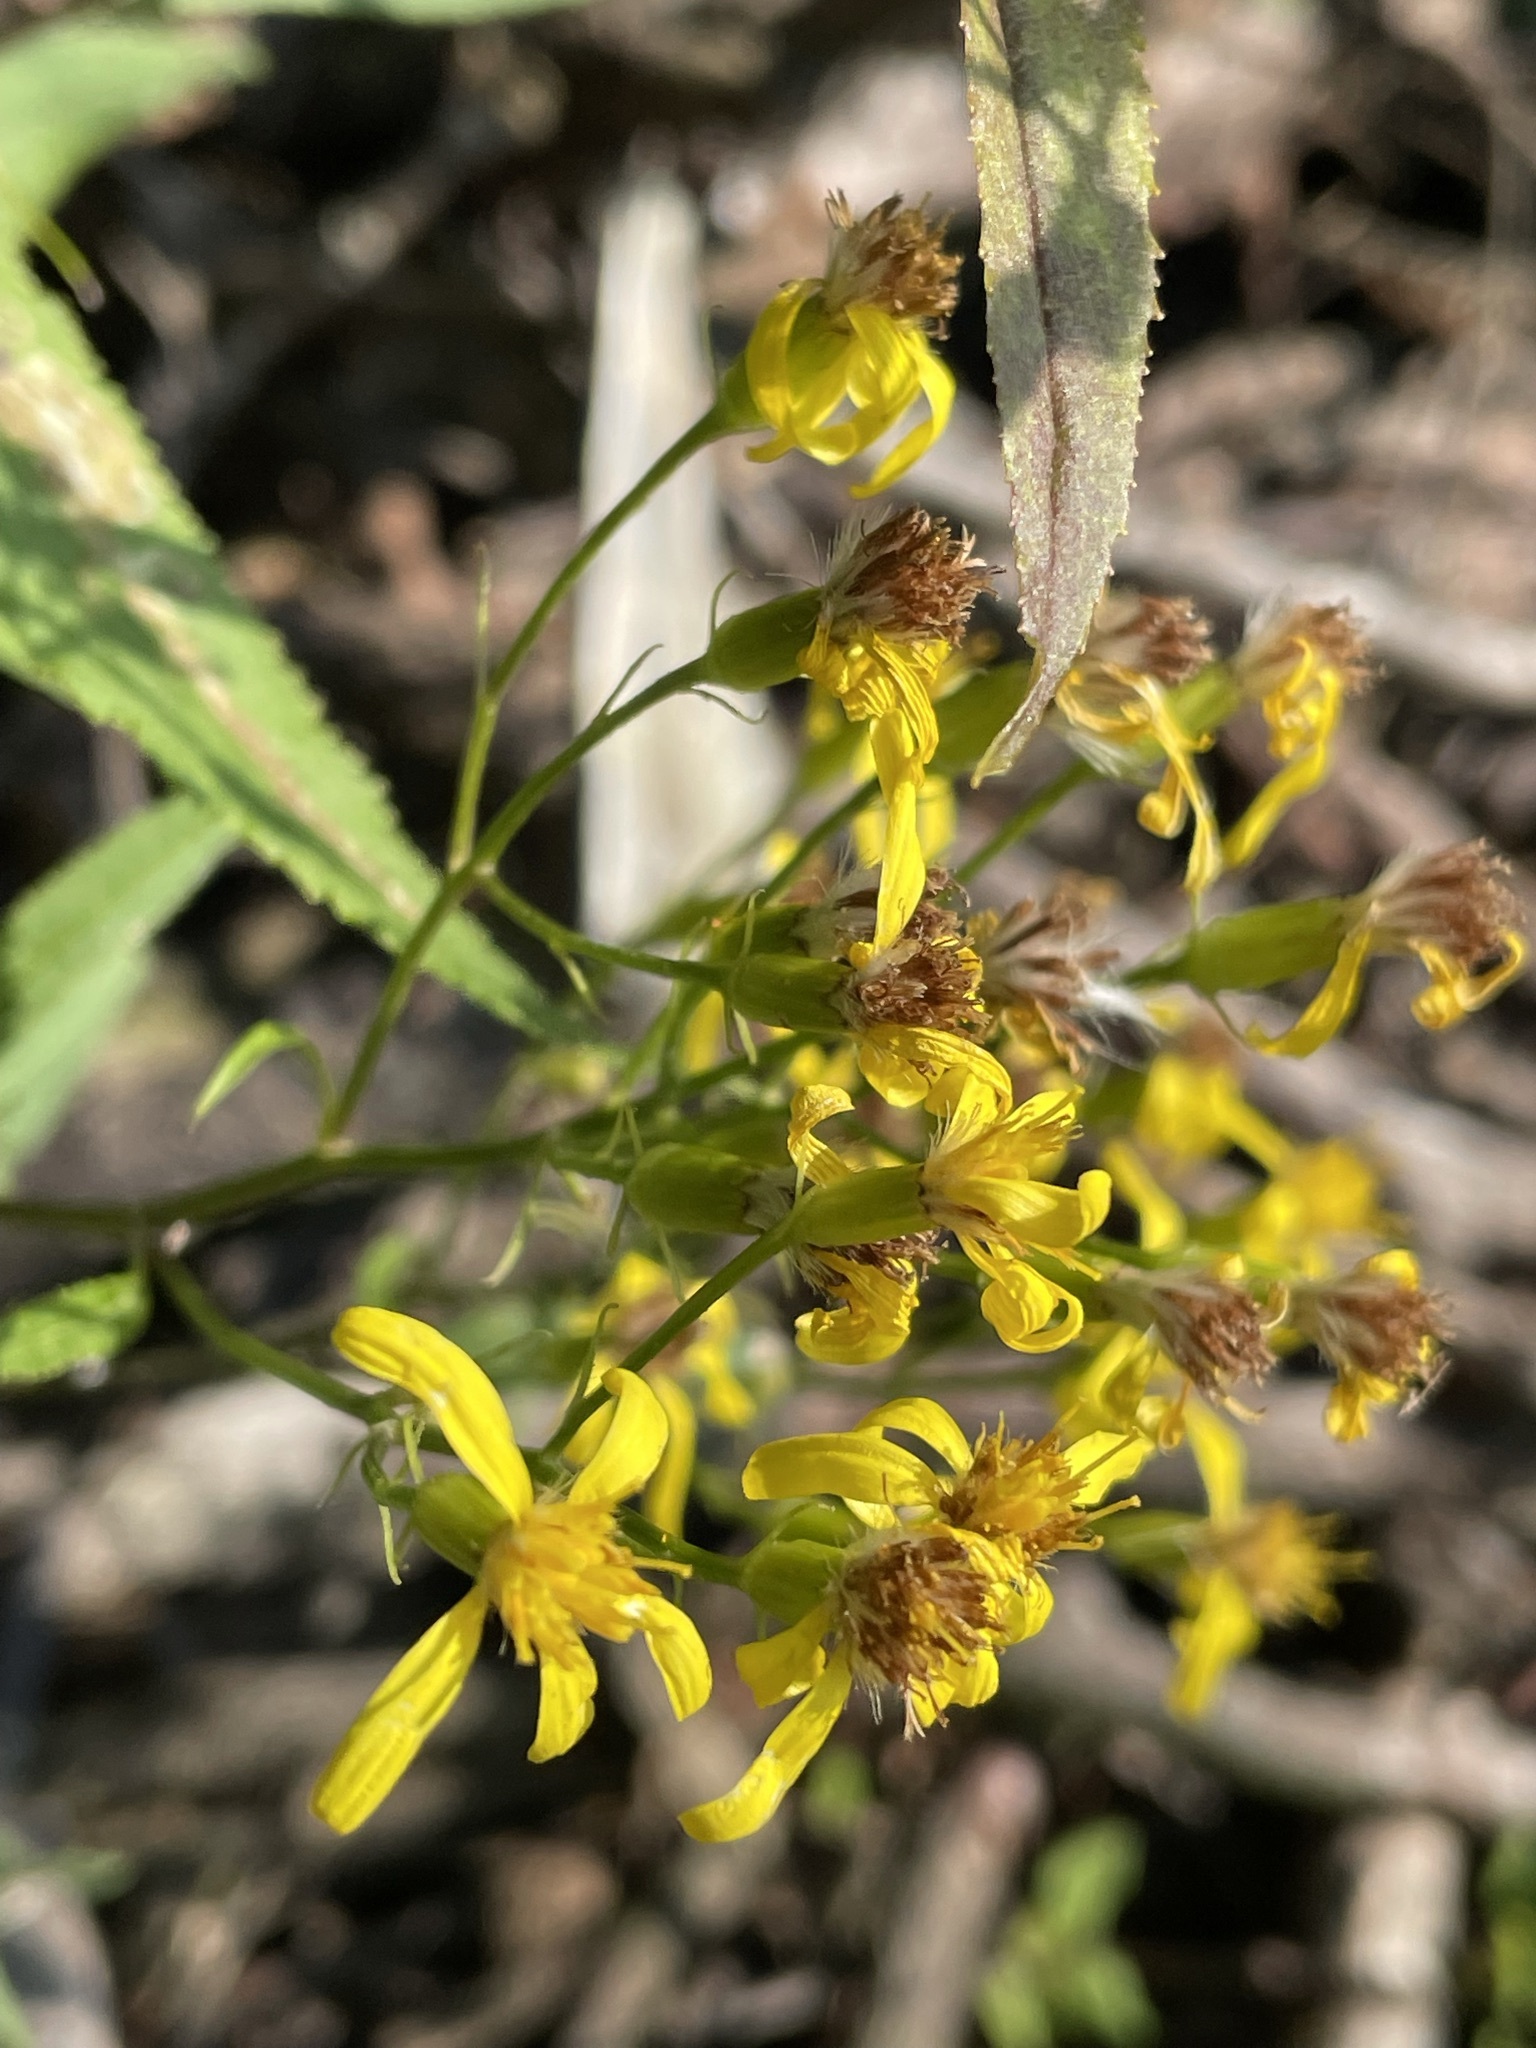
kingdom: Plantae
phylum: Tracheophyta
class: Magnoliopsida
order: Asterales
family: Asteraceae
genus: Senecio
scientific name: Senecio ovatus
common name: Wood ragwort
